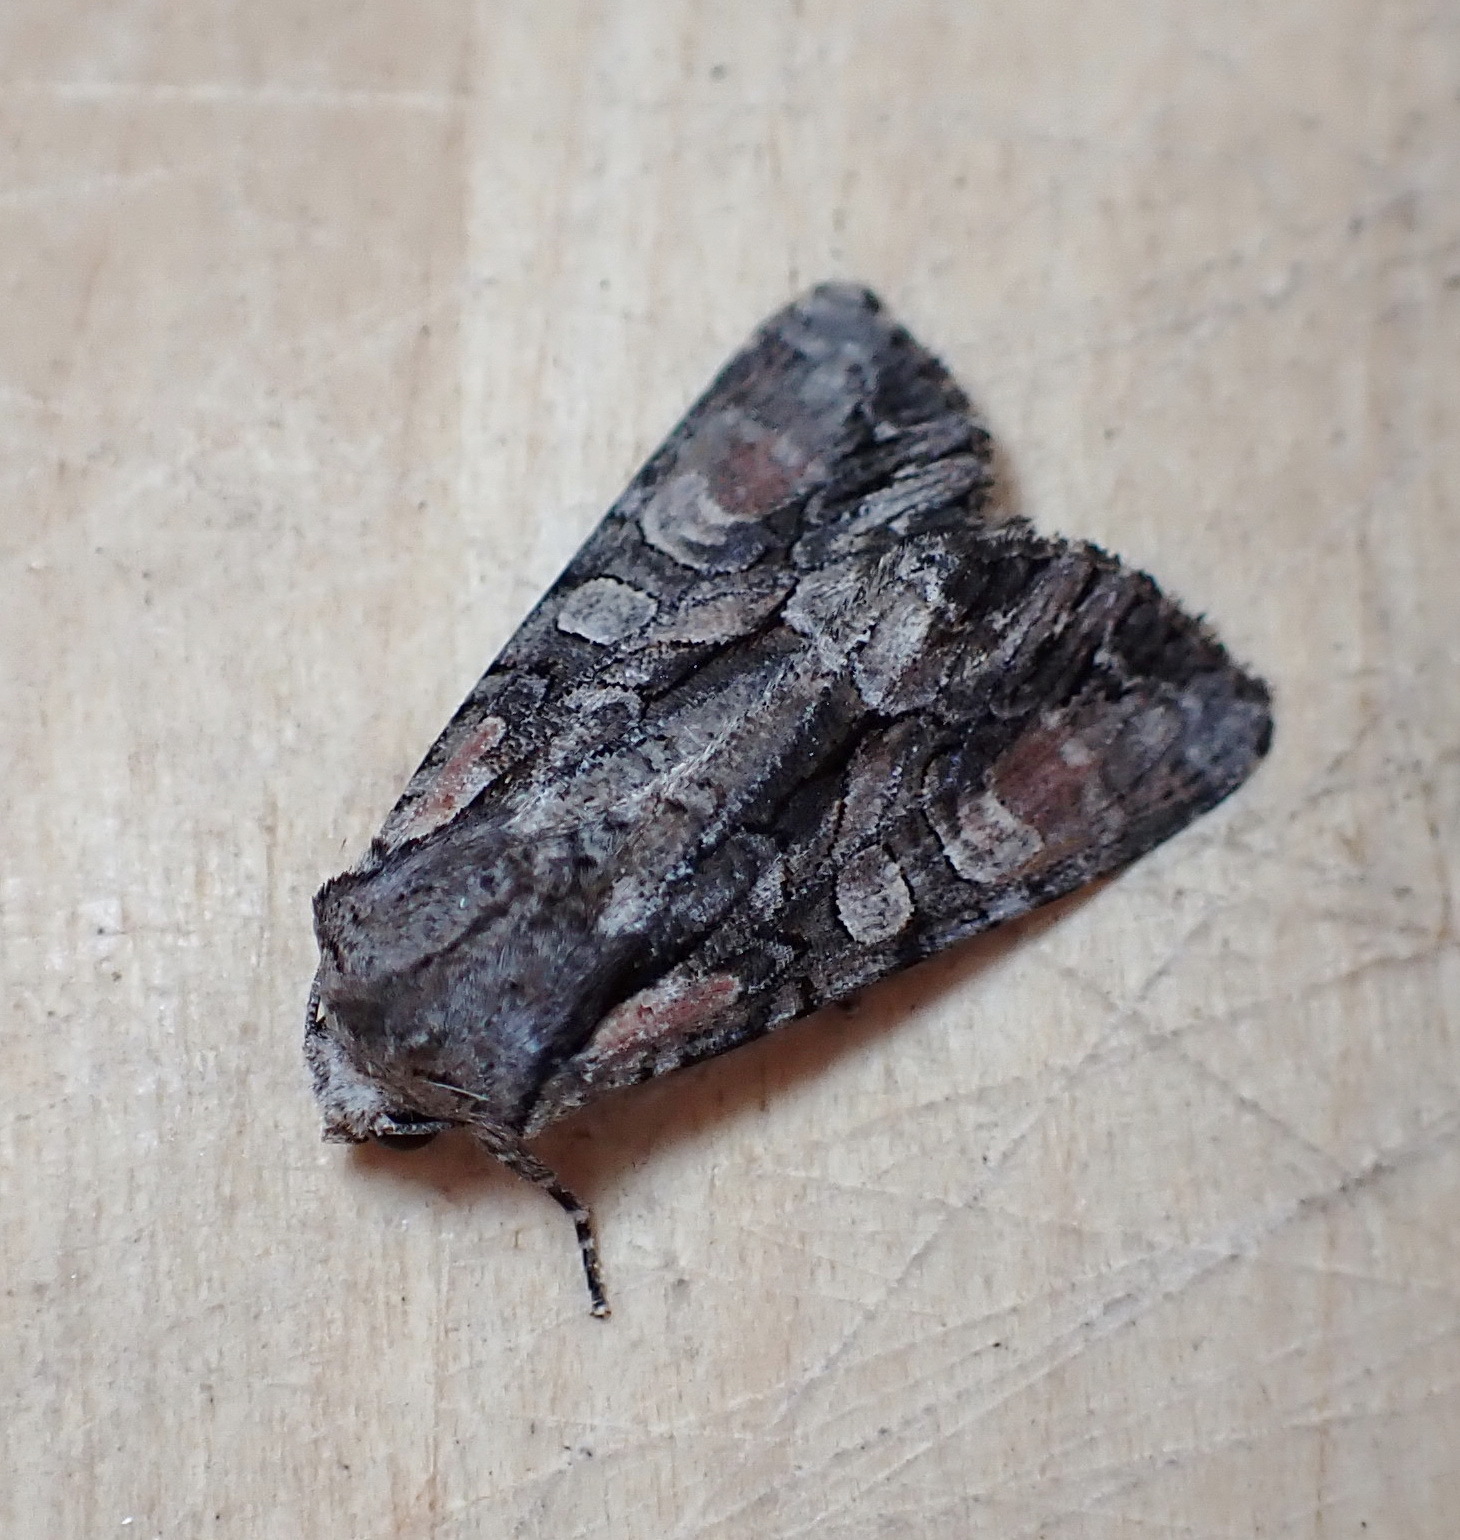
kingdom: Animalia
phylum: Arthropoda
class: Insecta
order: Lepidoptera
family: Noctuidae
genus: Lacanobia
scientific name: Lacanobia subjuncta
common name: Speckled cutworm moth
